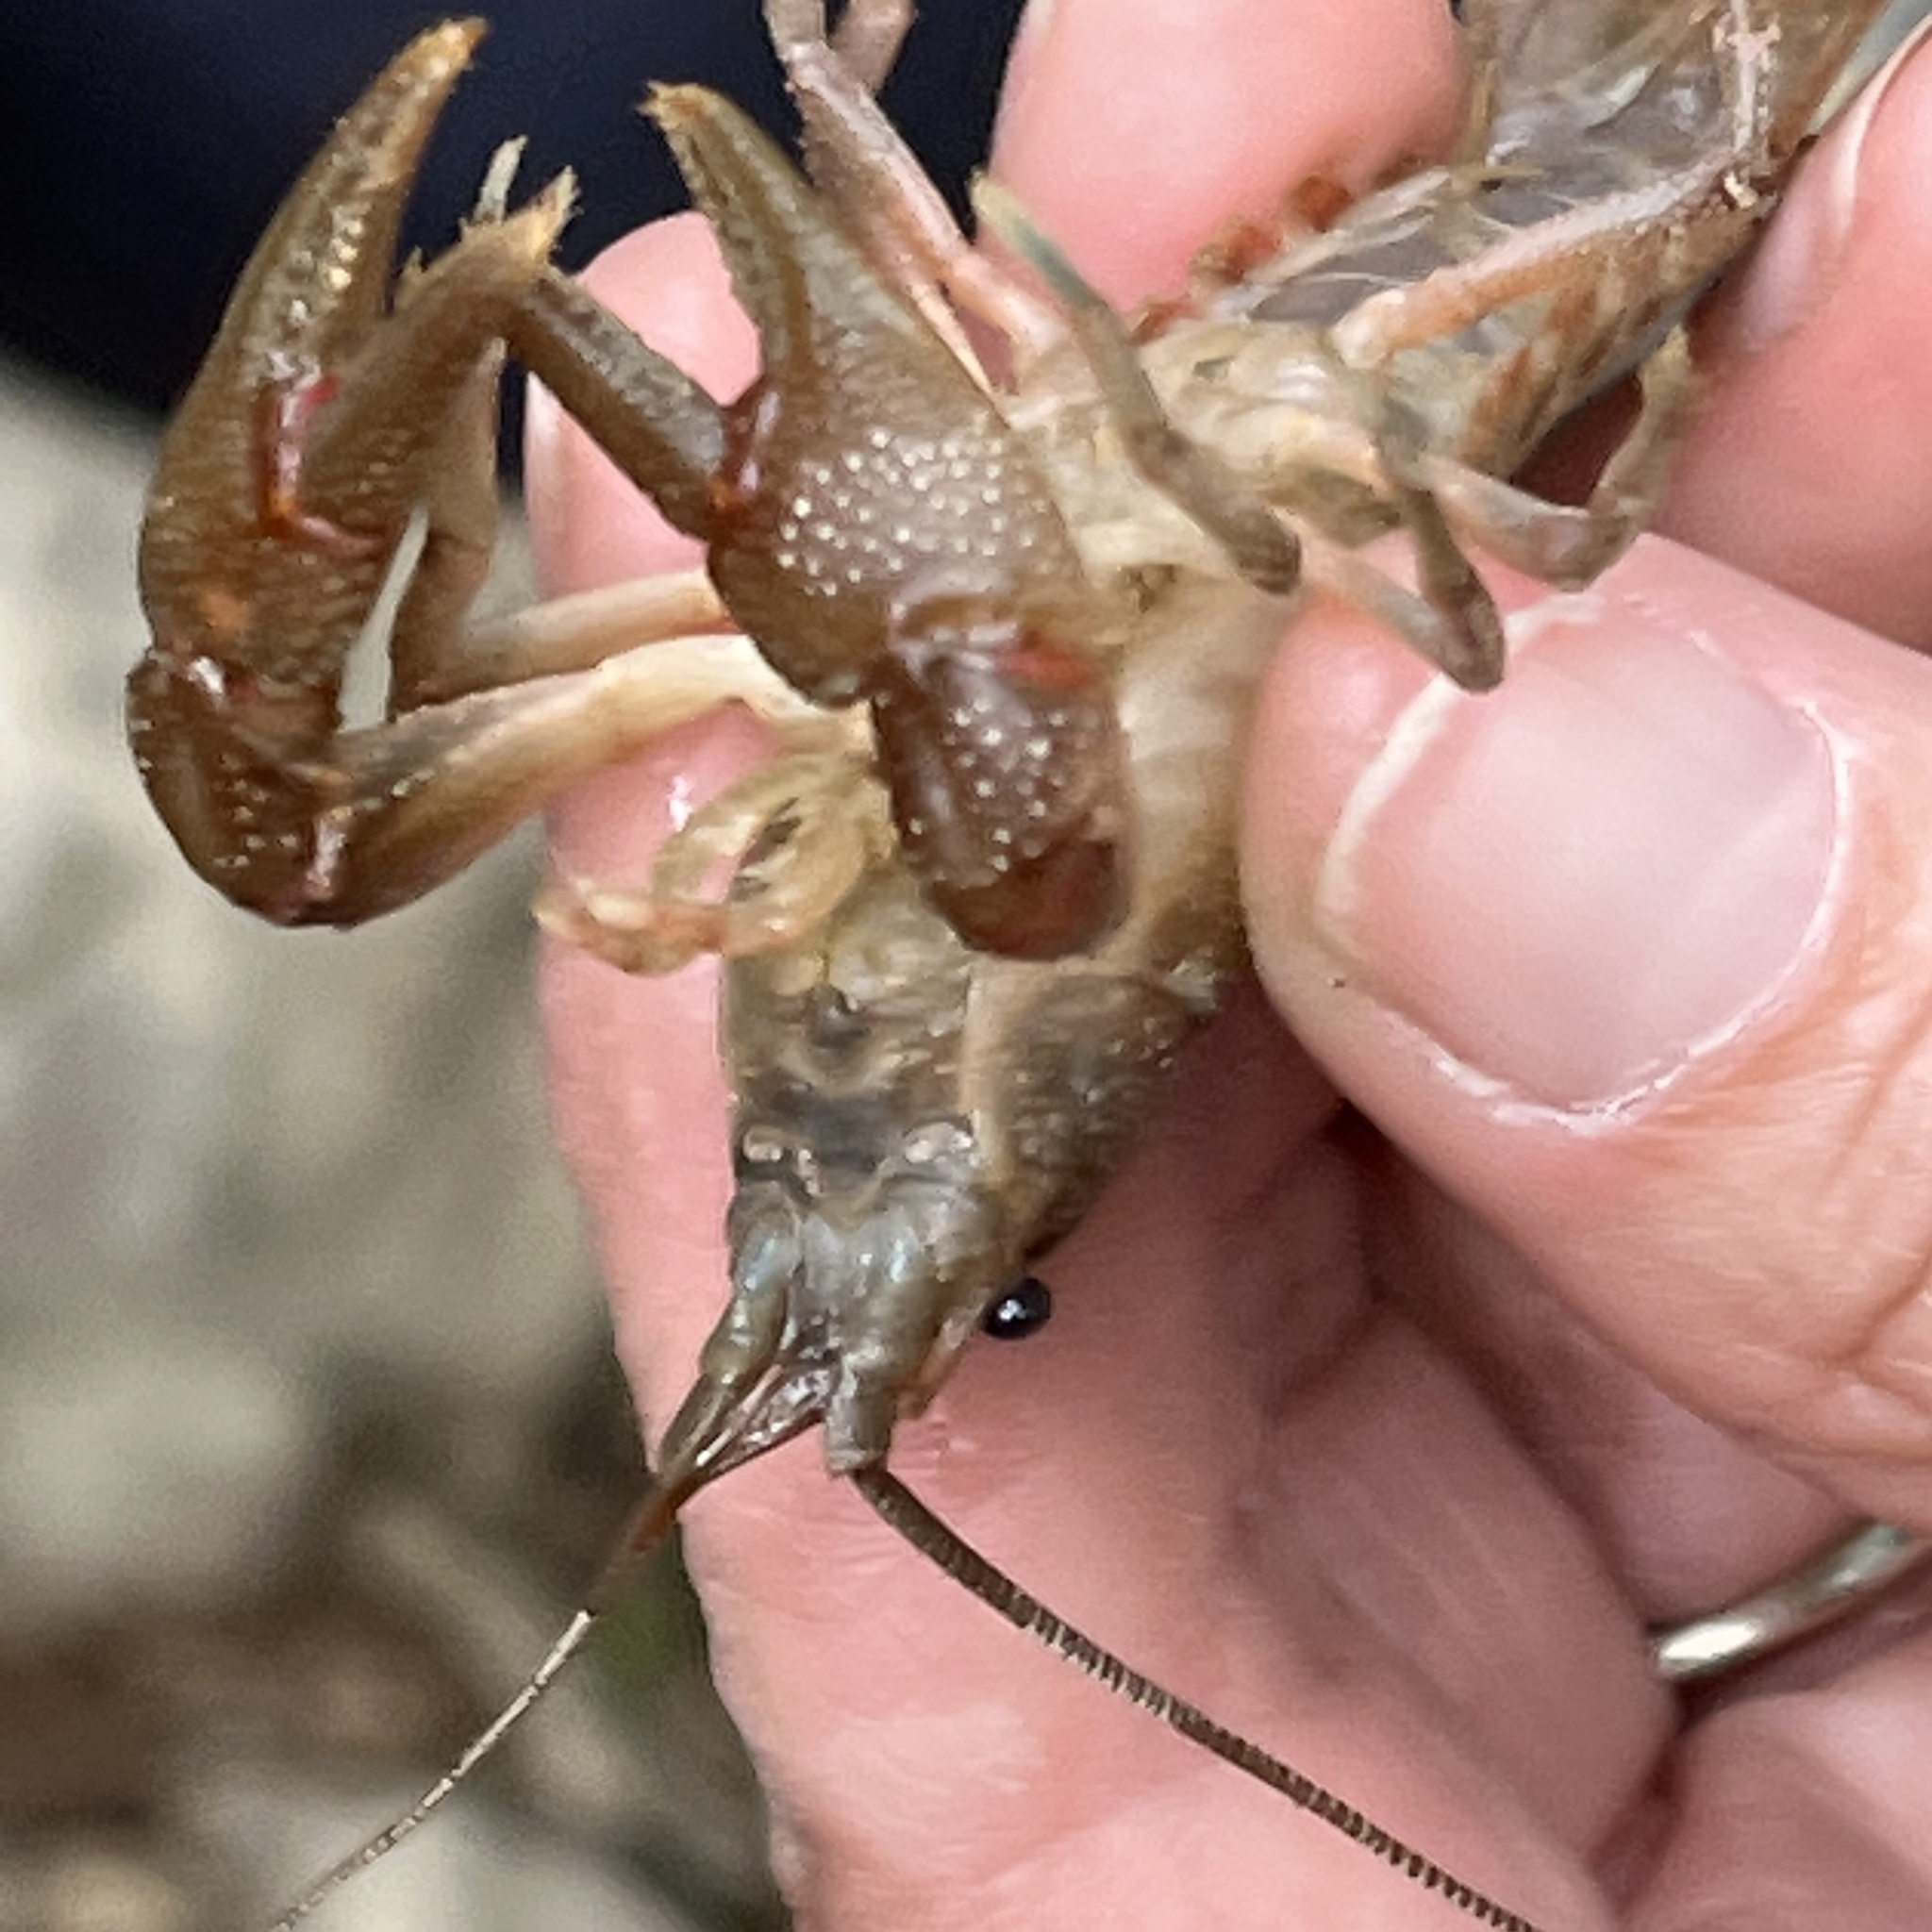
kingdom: Animalia
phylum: Arthropoda
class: Malacostraca
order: Decapoda
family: Cambaridae
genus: Cambarus
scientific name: Cambarus bartonii
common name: Appalachian brook crayfish
